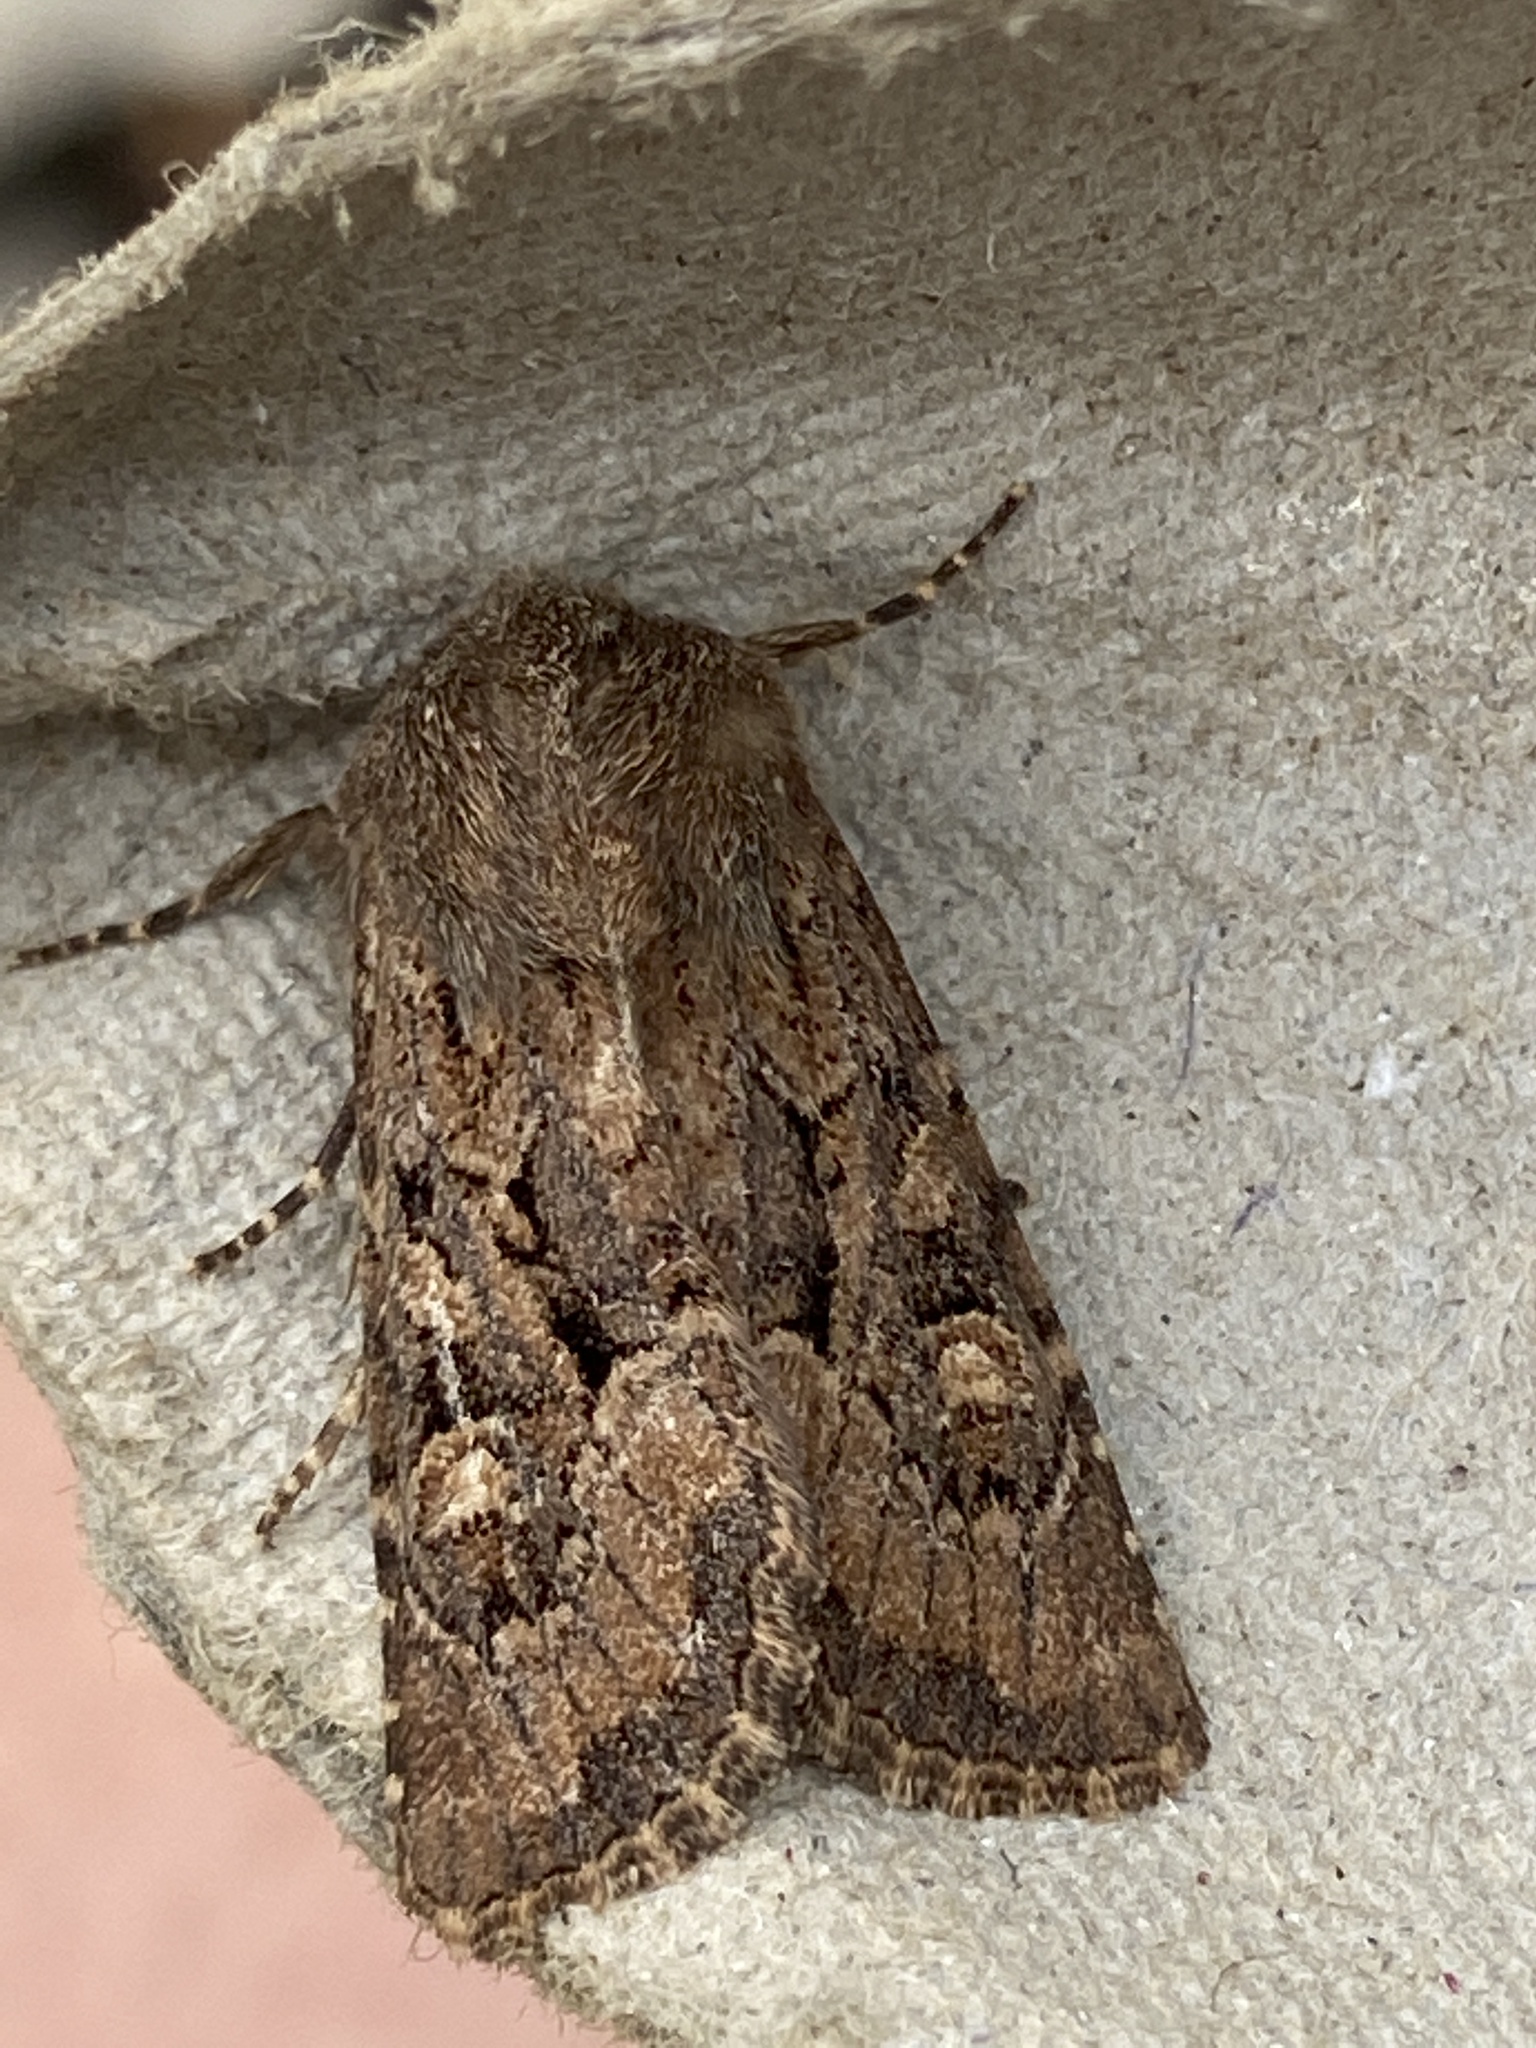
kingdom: Animalia
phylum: Arthropoda
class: Insecta
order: Lepidoptera
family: Noctuidae
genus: Luperina
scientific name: Luperina testacea
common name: Flounced rustic
